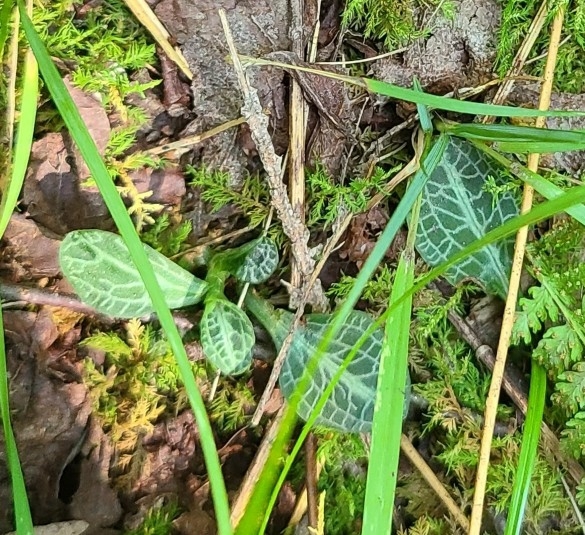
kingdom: Plantae
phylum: Tracheophyta
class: Liliopsida
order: Asparagales
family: Orchidaceae
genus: Goodyera
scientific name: Goodyera pubescens
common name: Downy rattlesnake-plantain
